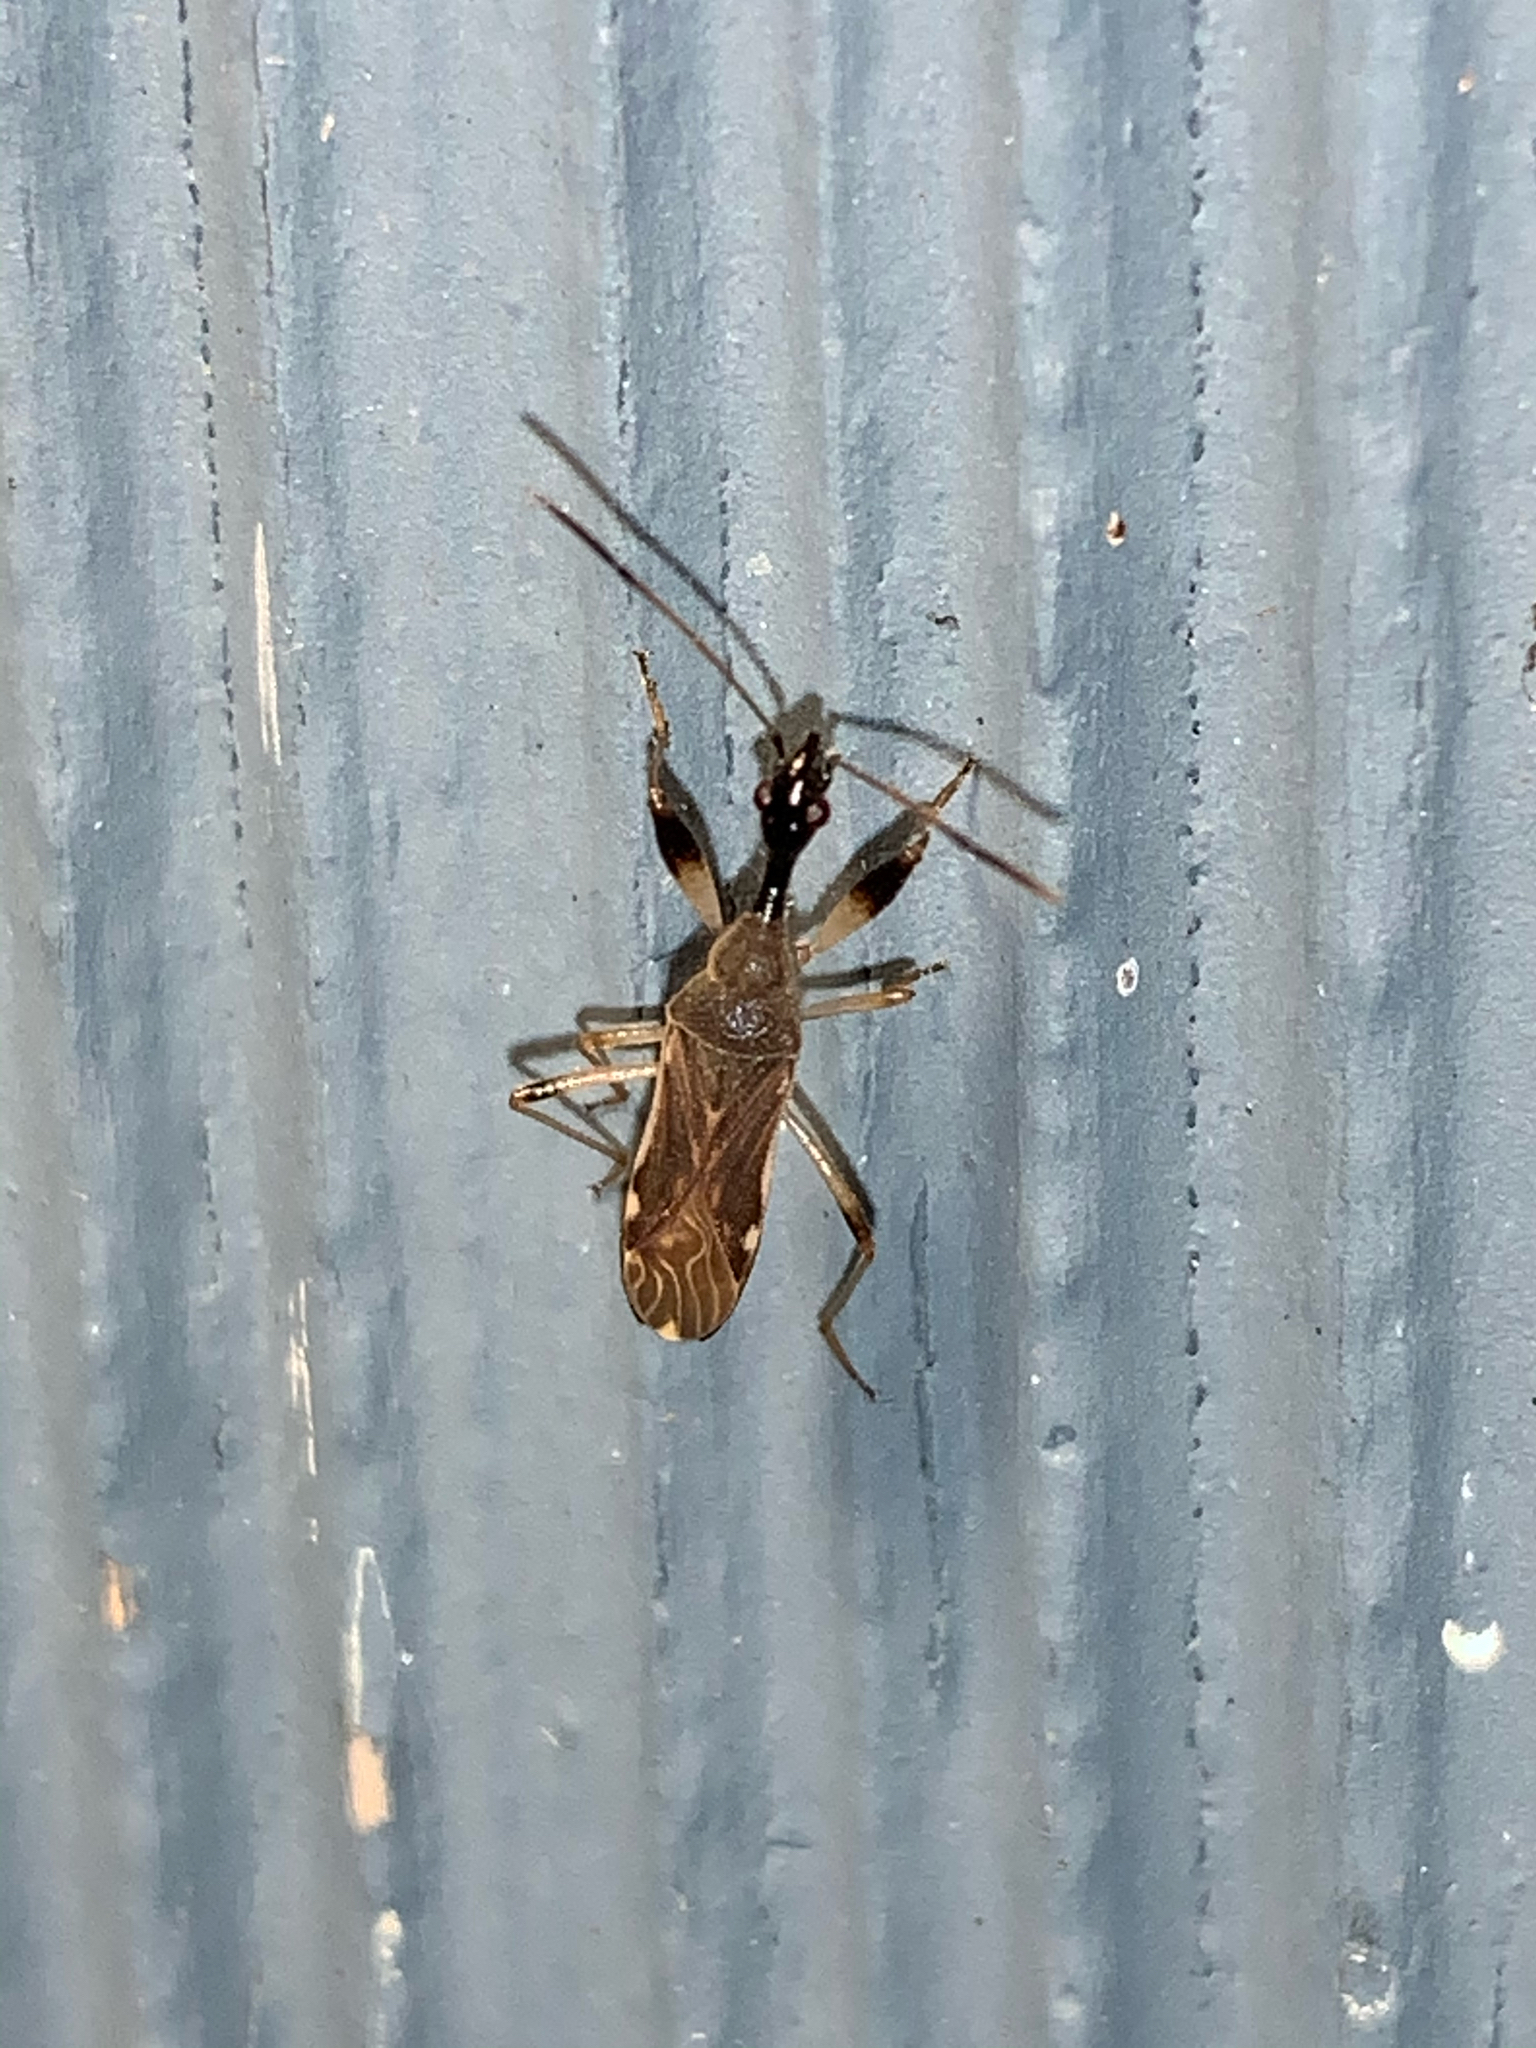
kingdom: Animalia
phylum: Arthropoda
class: Insecta
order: Hemiptera
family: Rhyparochromidae
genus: Myodocha
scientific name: Myodocha serripes
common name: Long-necked seed bug
